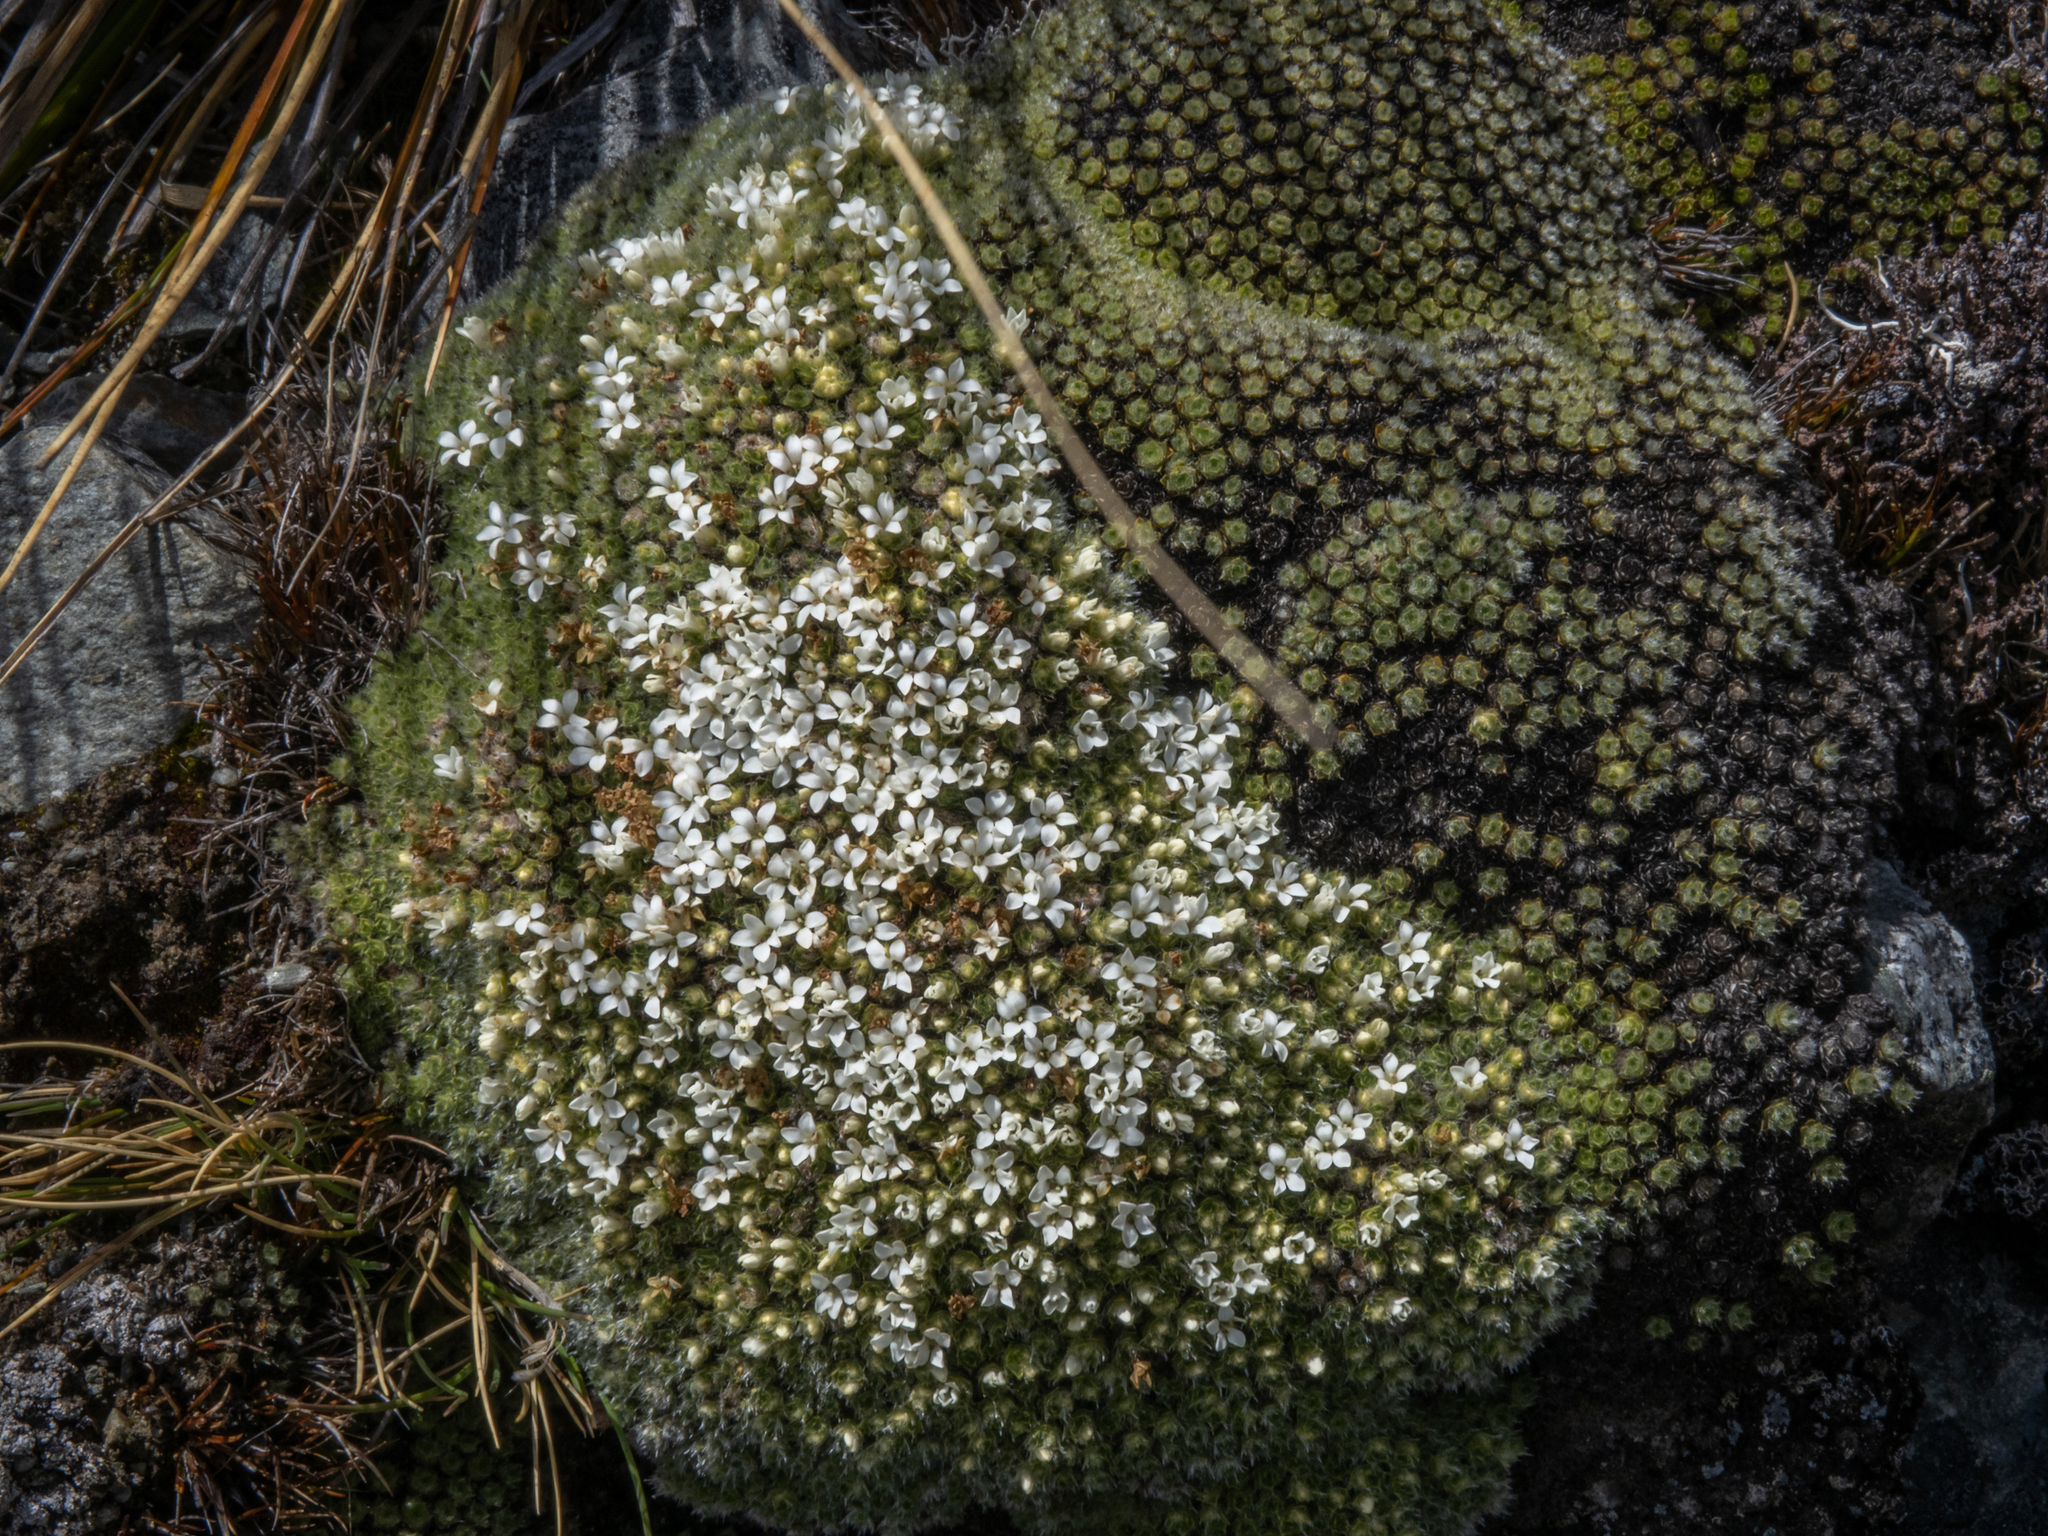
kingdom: Plantae
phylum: Tracheophyta
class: Magnoliopsida
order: Lamiales
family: Plantaginaceae
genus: Veronica
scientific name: Veronica thomsonii
